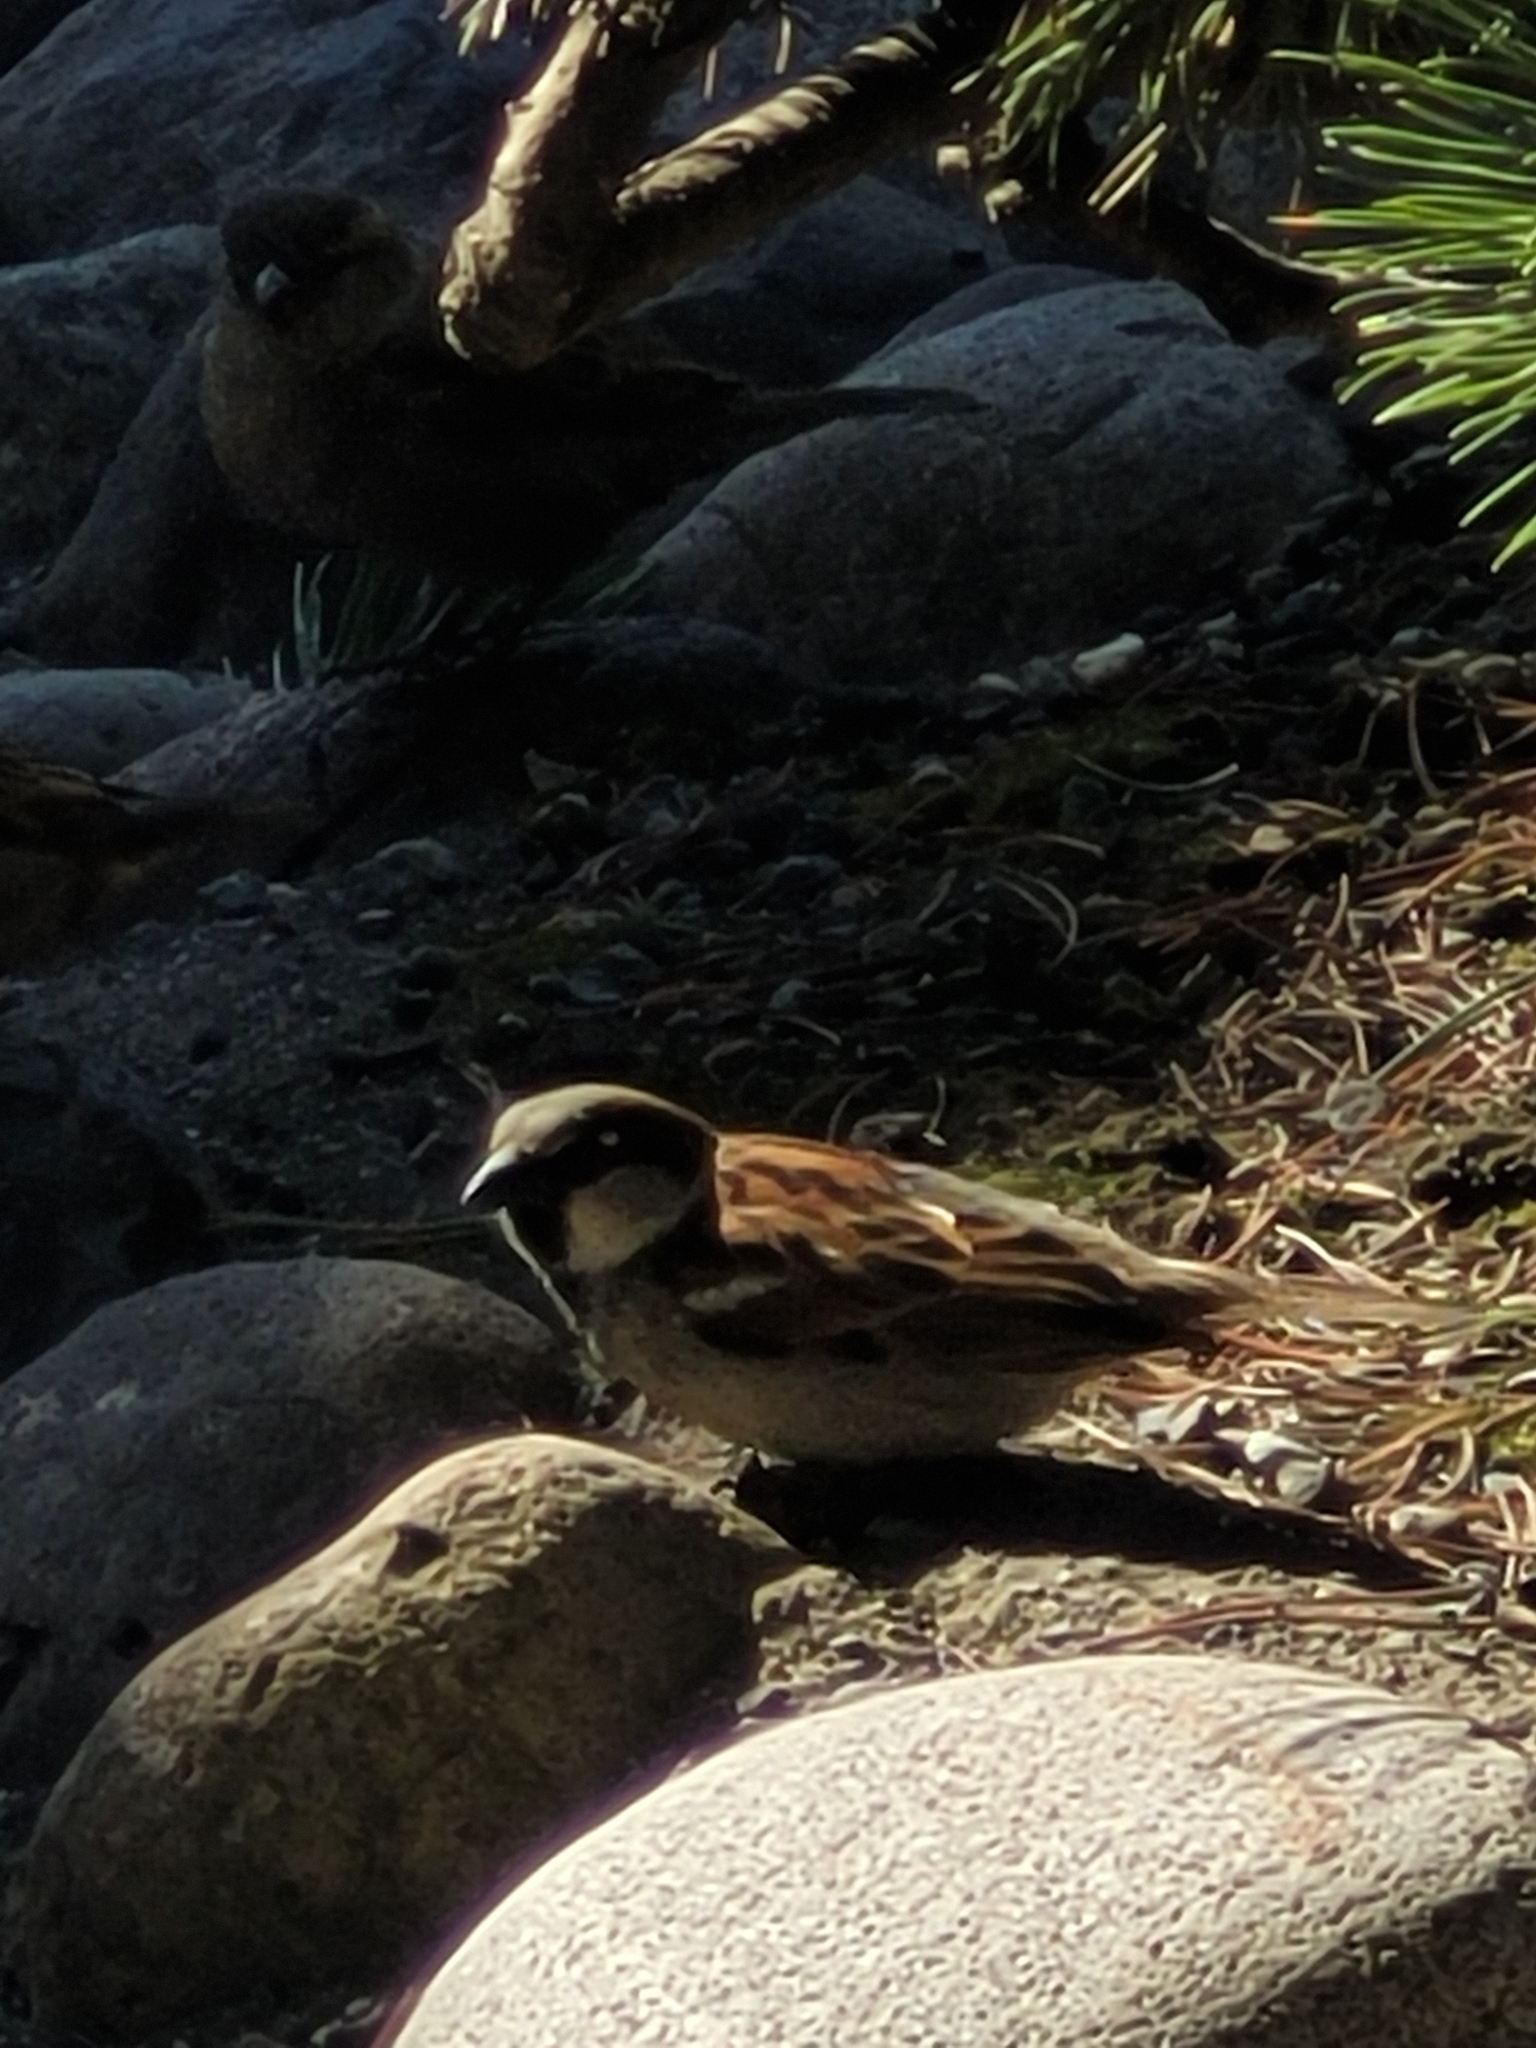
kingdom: Animalia
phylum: Chordata
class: Aves
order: Passeriformes
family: Passeridae
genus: Passer
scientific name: Passer domesticus
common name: House sparrow
